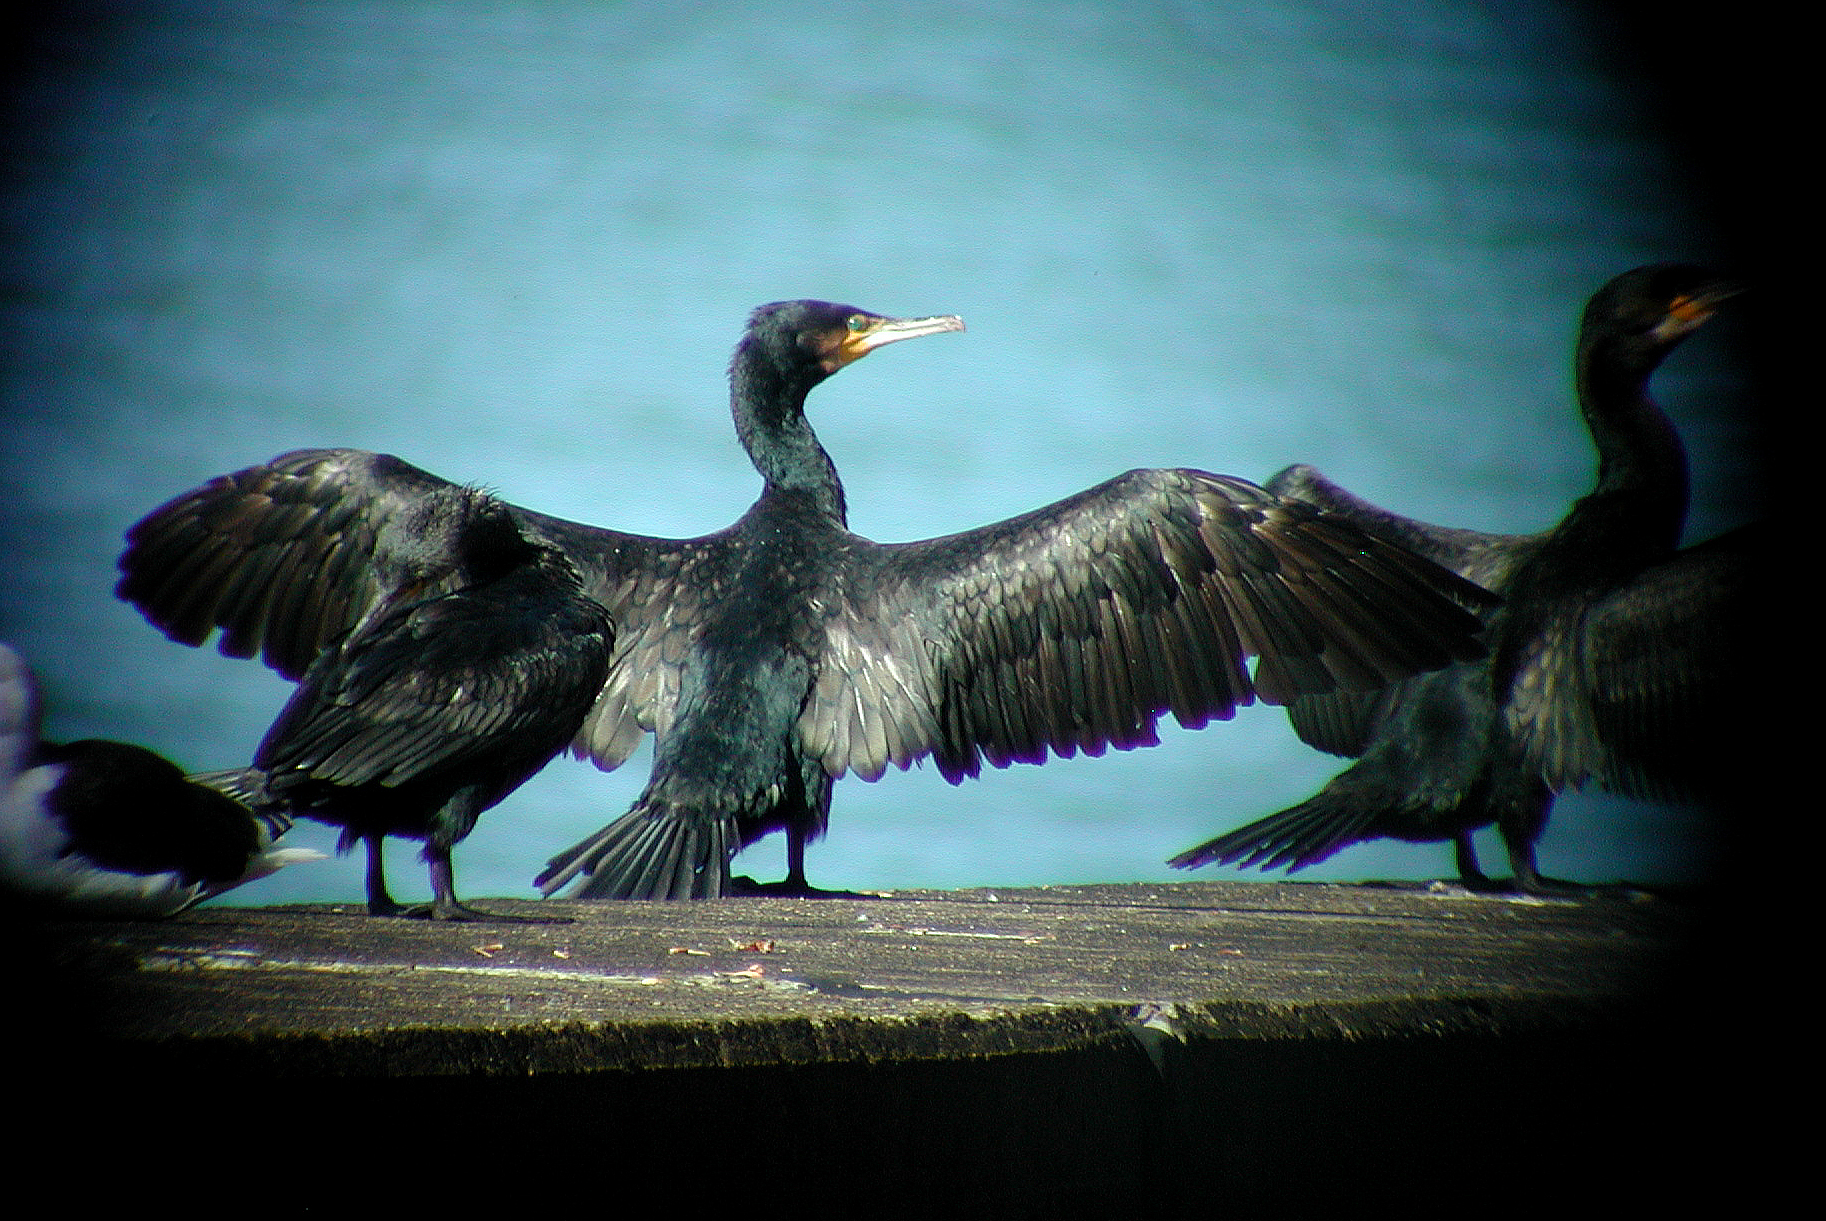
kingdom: Animalia
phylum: Chordata
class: Aves
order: Suliformes
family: Phalacrocoracidae
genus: Phalacrocorax
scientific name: Phalacrocorax carbo
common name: Great cormorant
